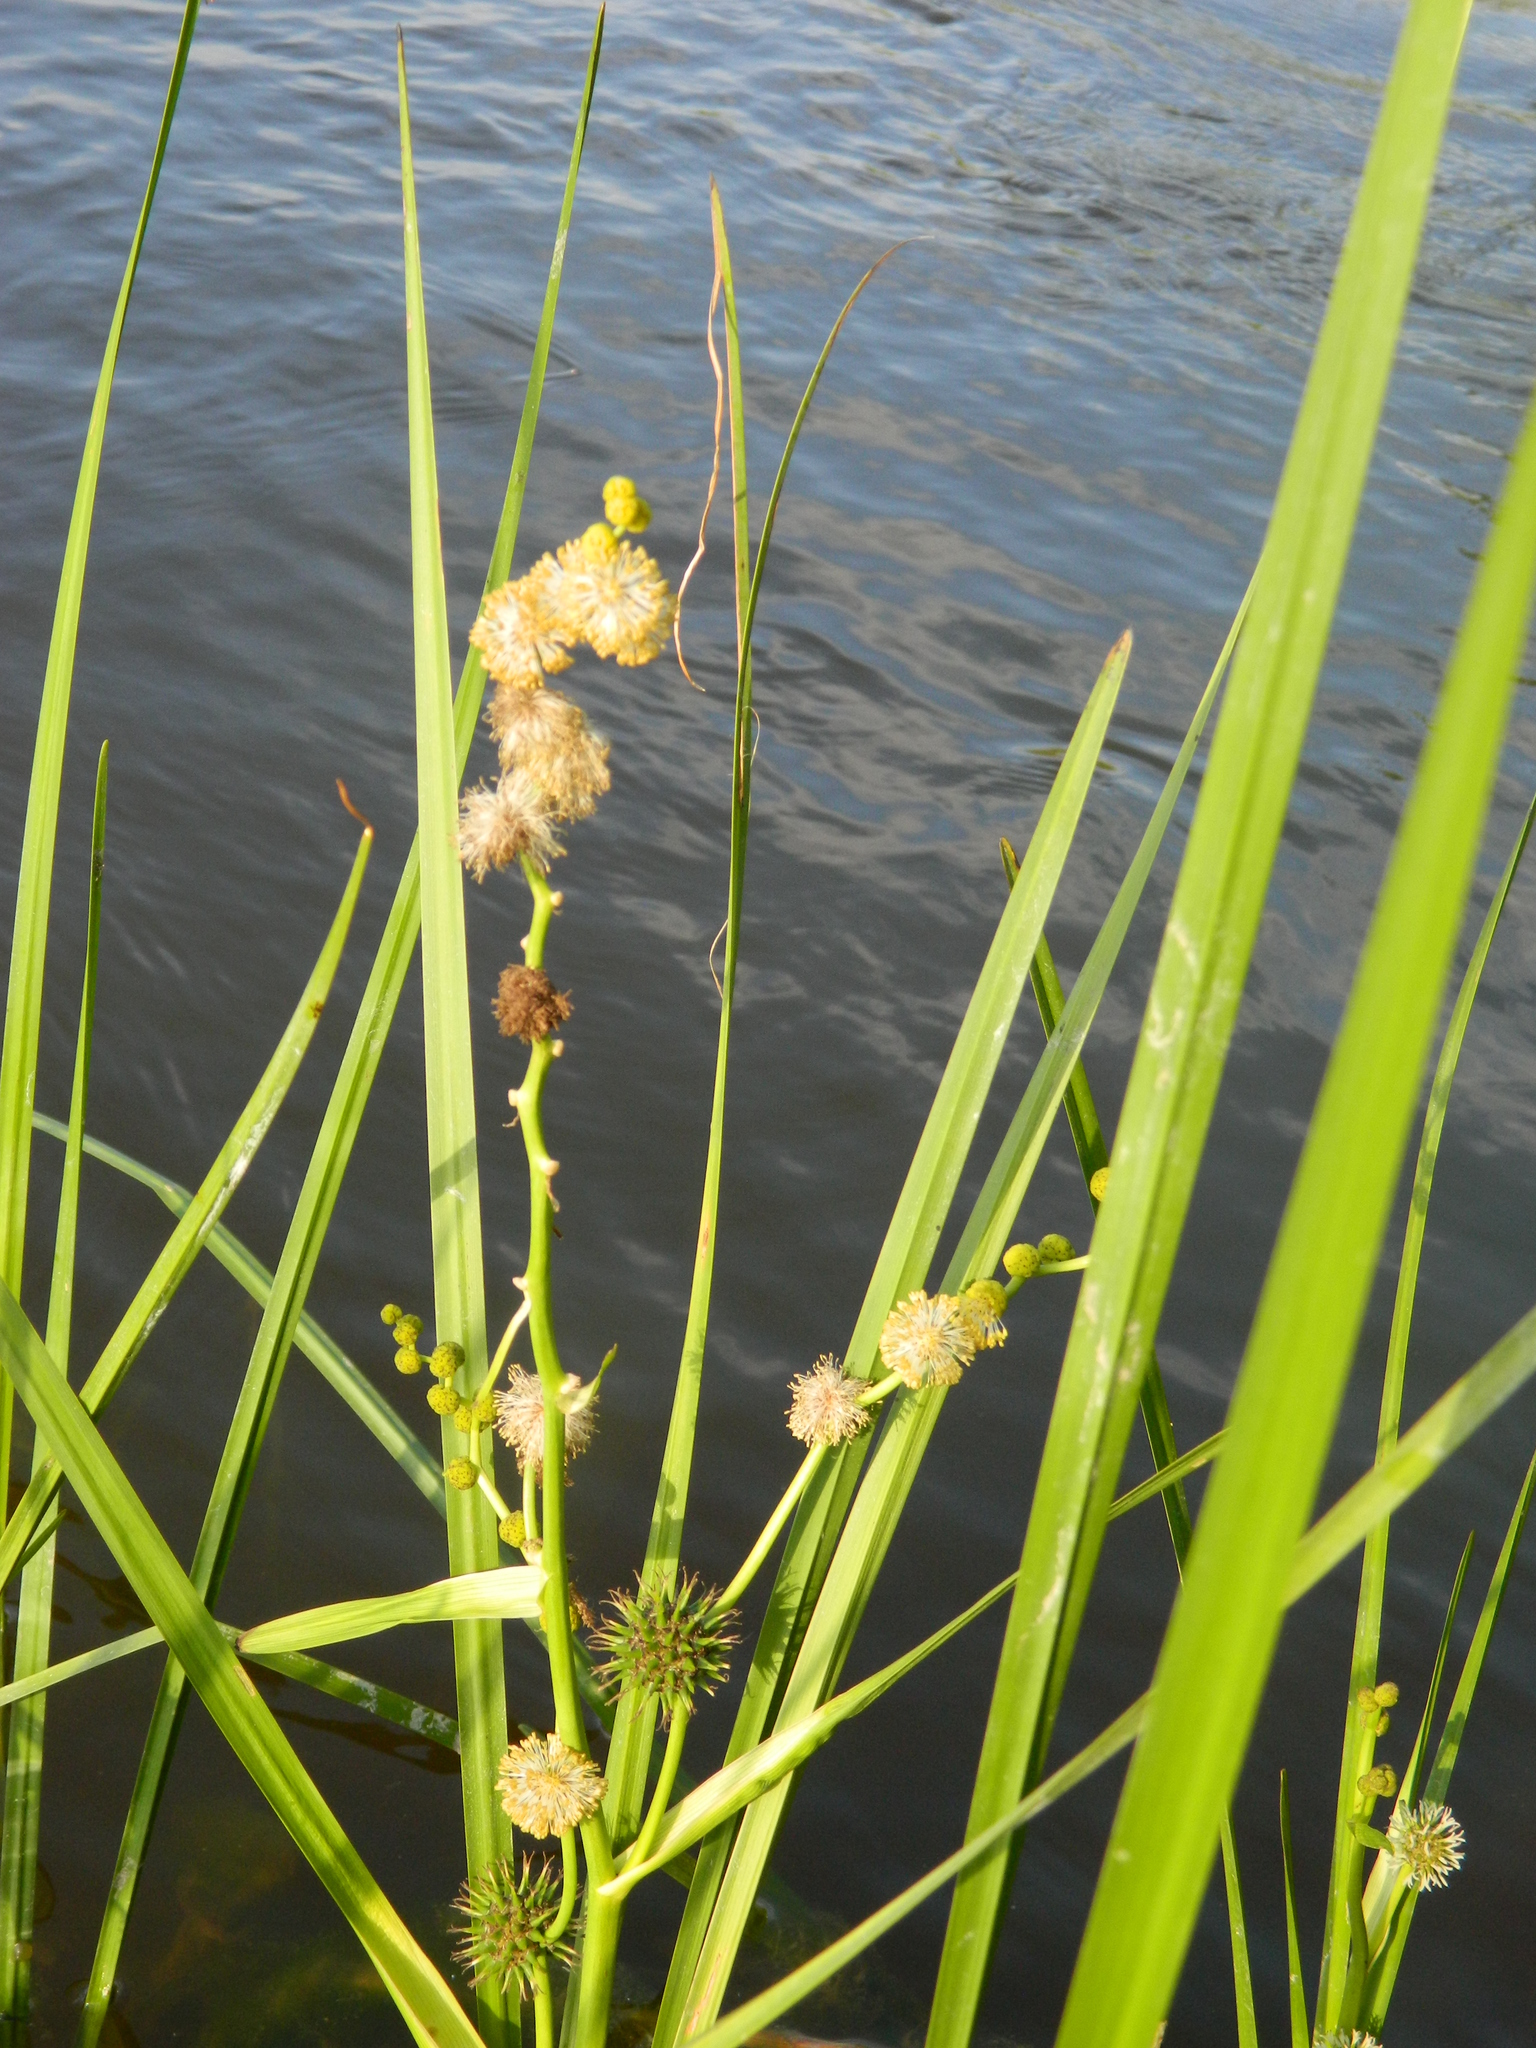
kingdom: Plantae
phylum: Tracheophyta
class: Liliopsida
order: Poales
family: Typhaceae
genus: Sparganium
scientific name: Sparganium eurycarpum
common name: Broad-fruited burreed
